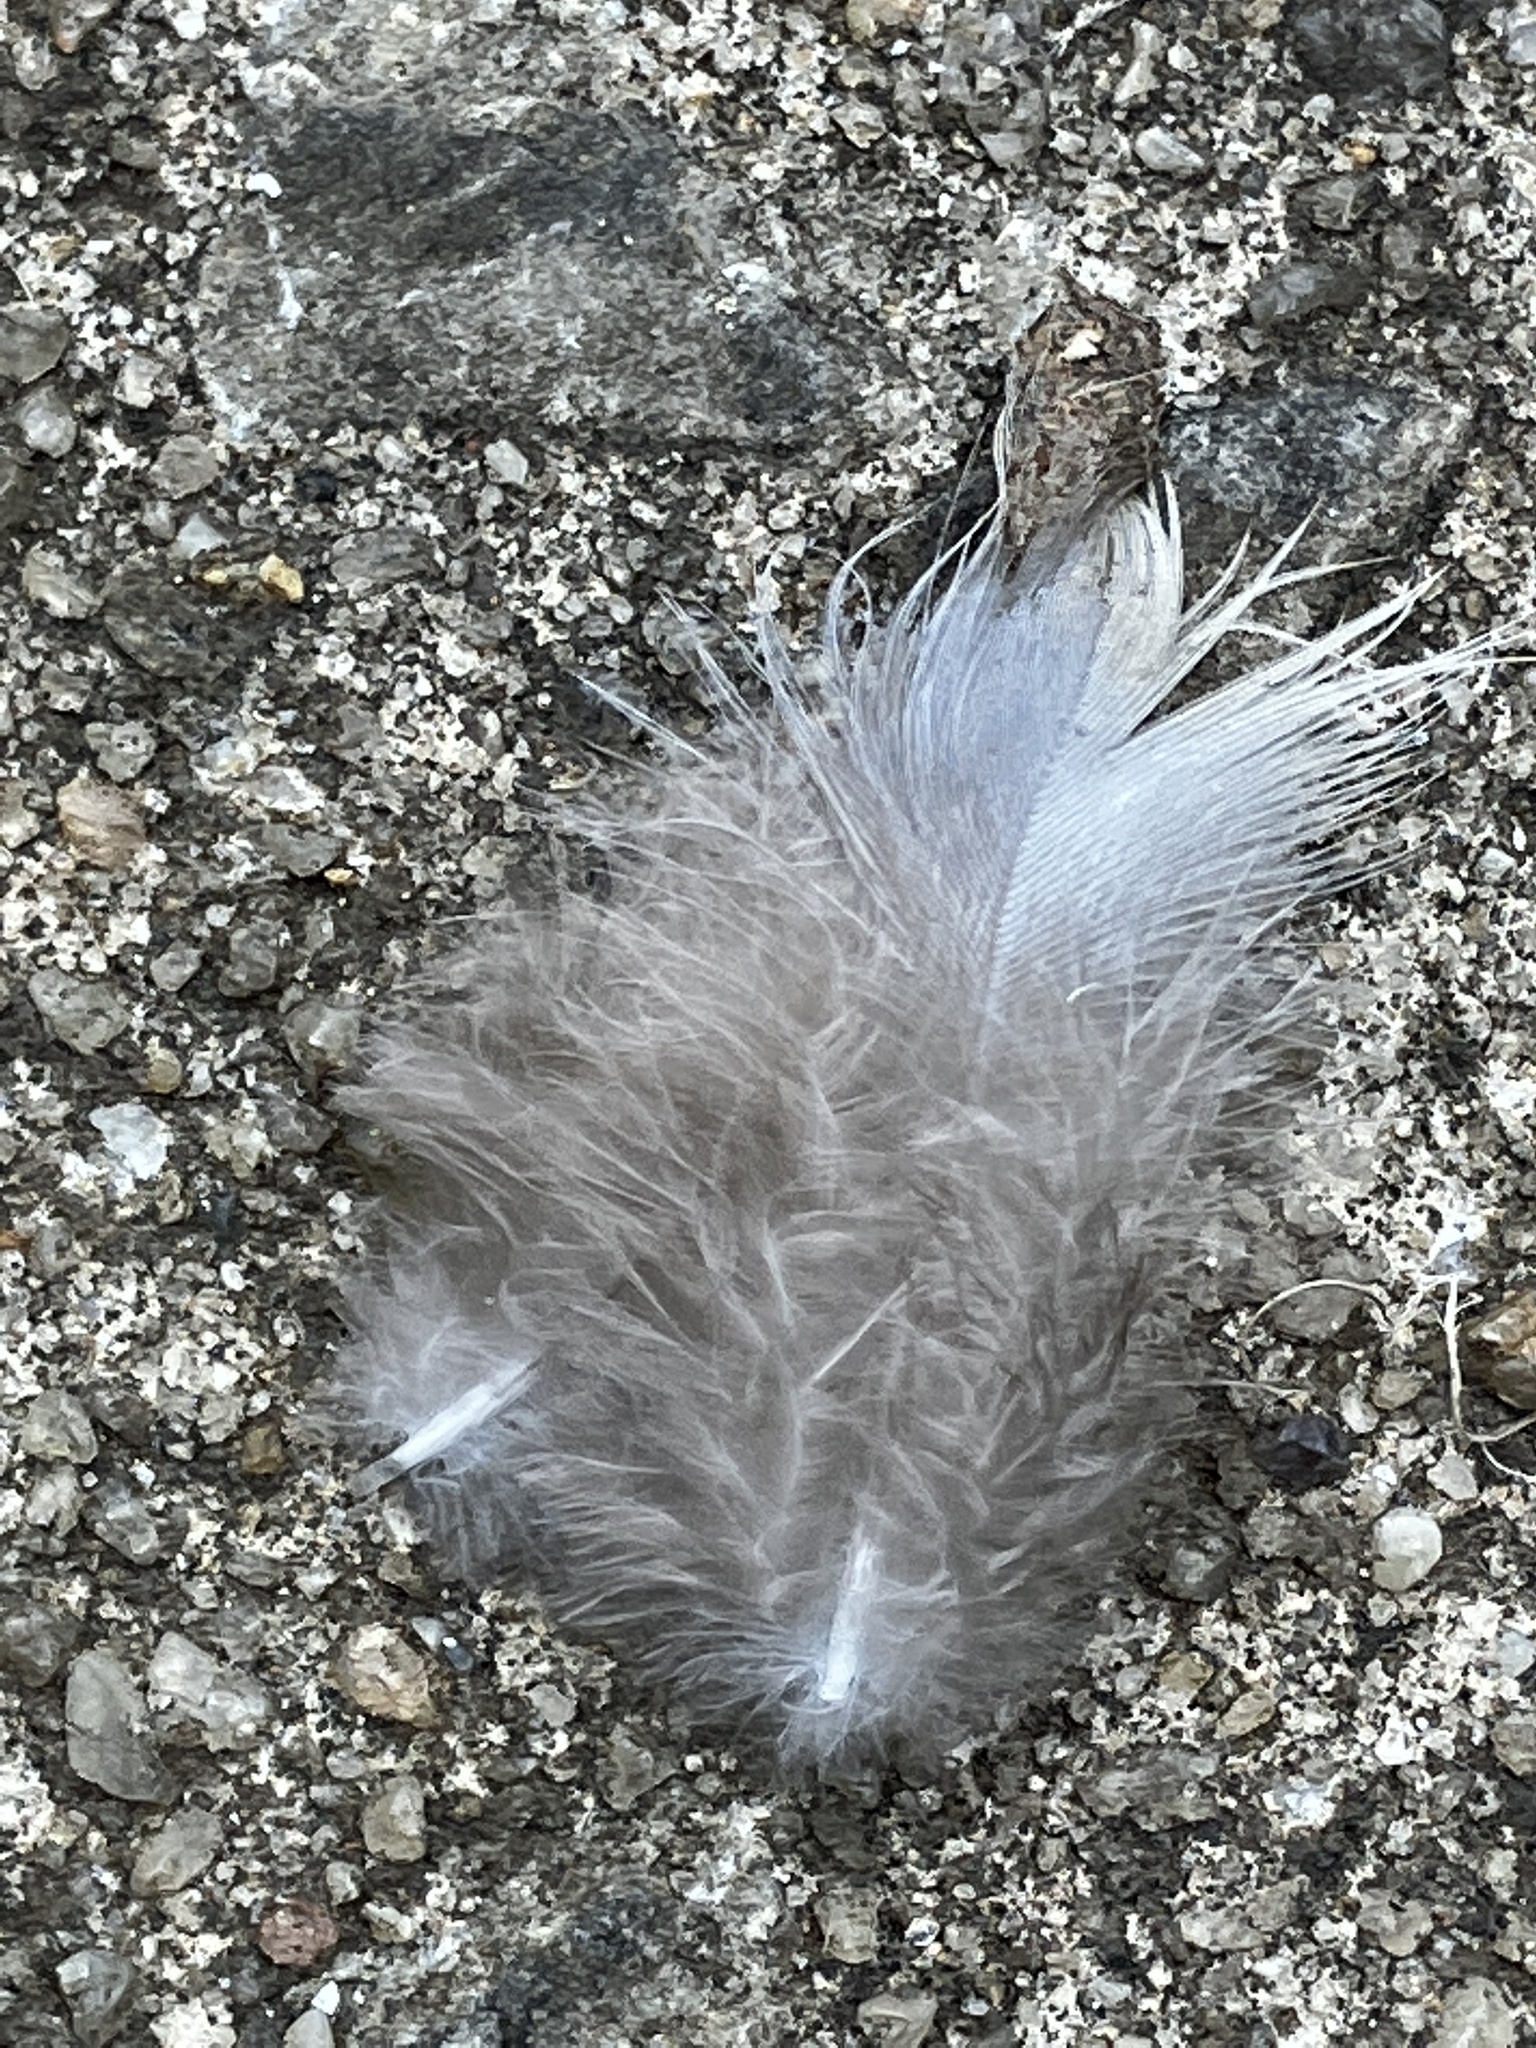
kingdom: Animalia
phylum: Chordata
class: Aves
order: Columbiformes
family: Columbidae
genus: Zenaida
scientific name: Zenaida macroura
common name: Mourning dove
